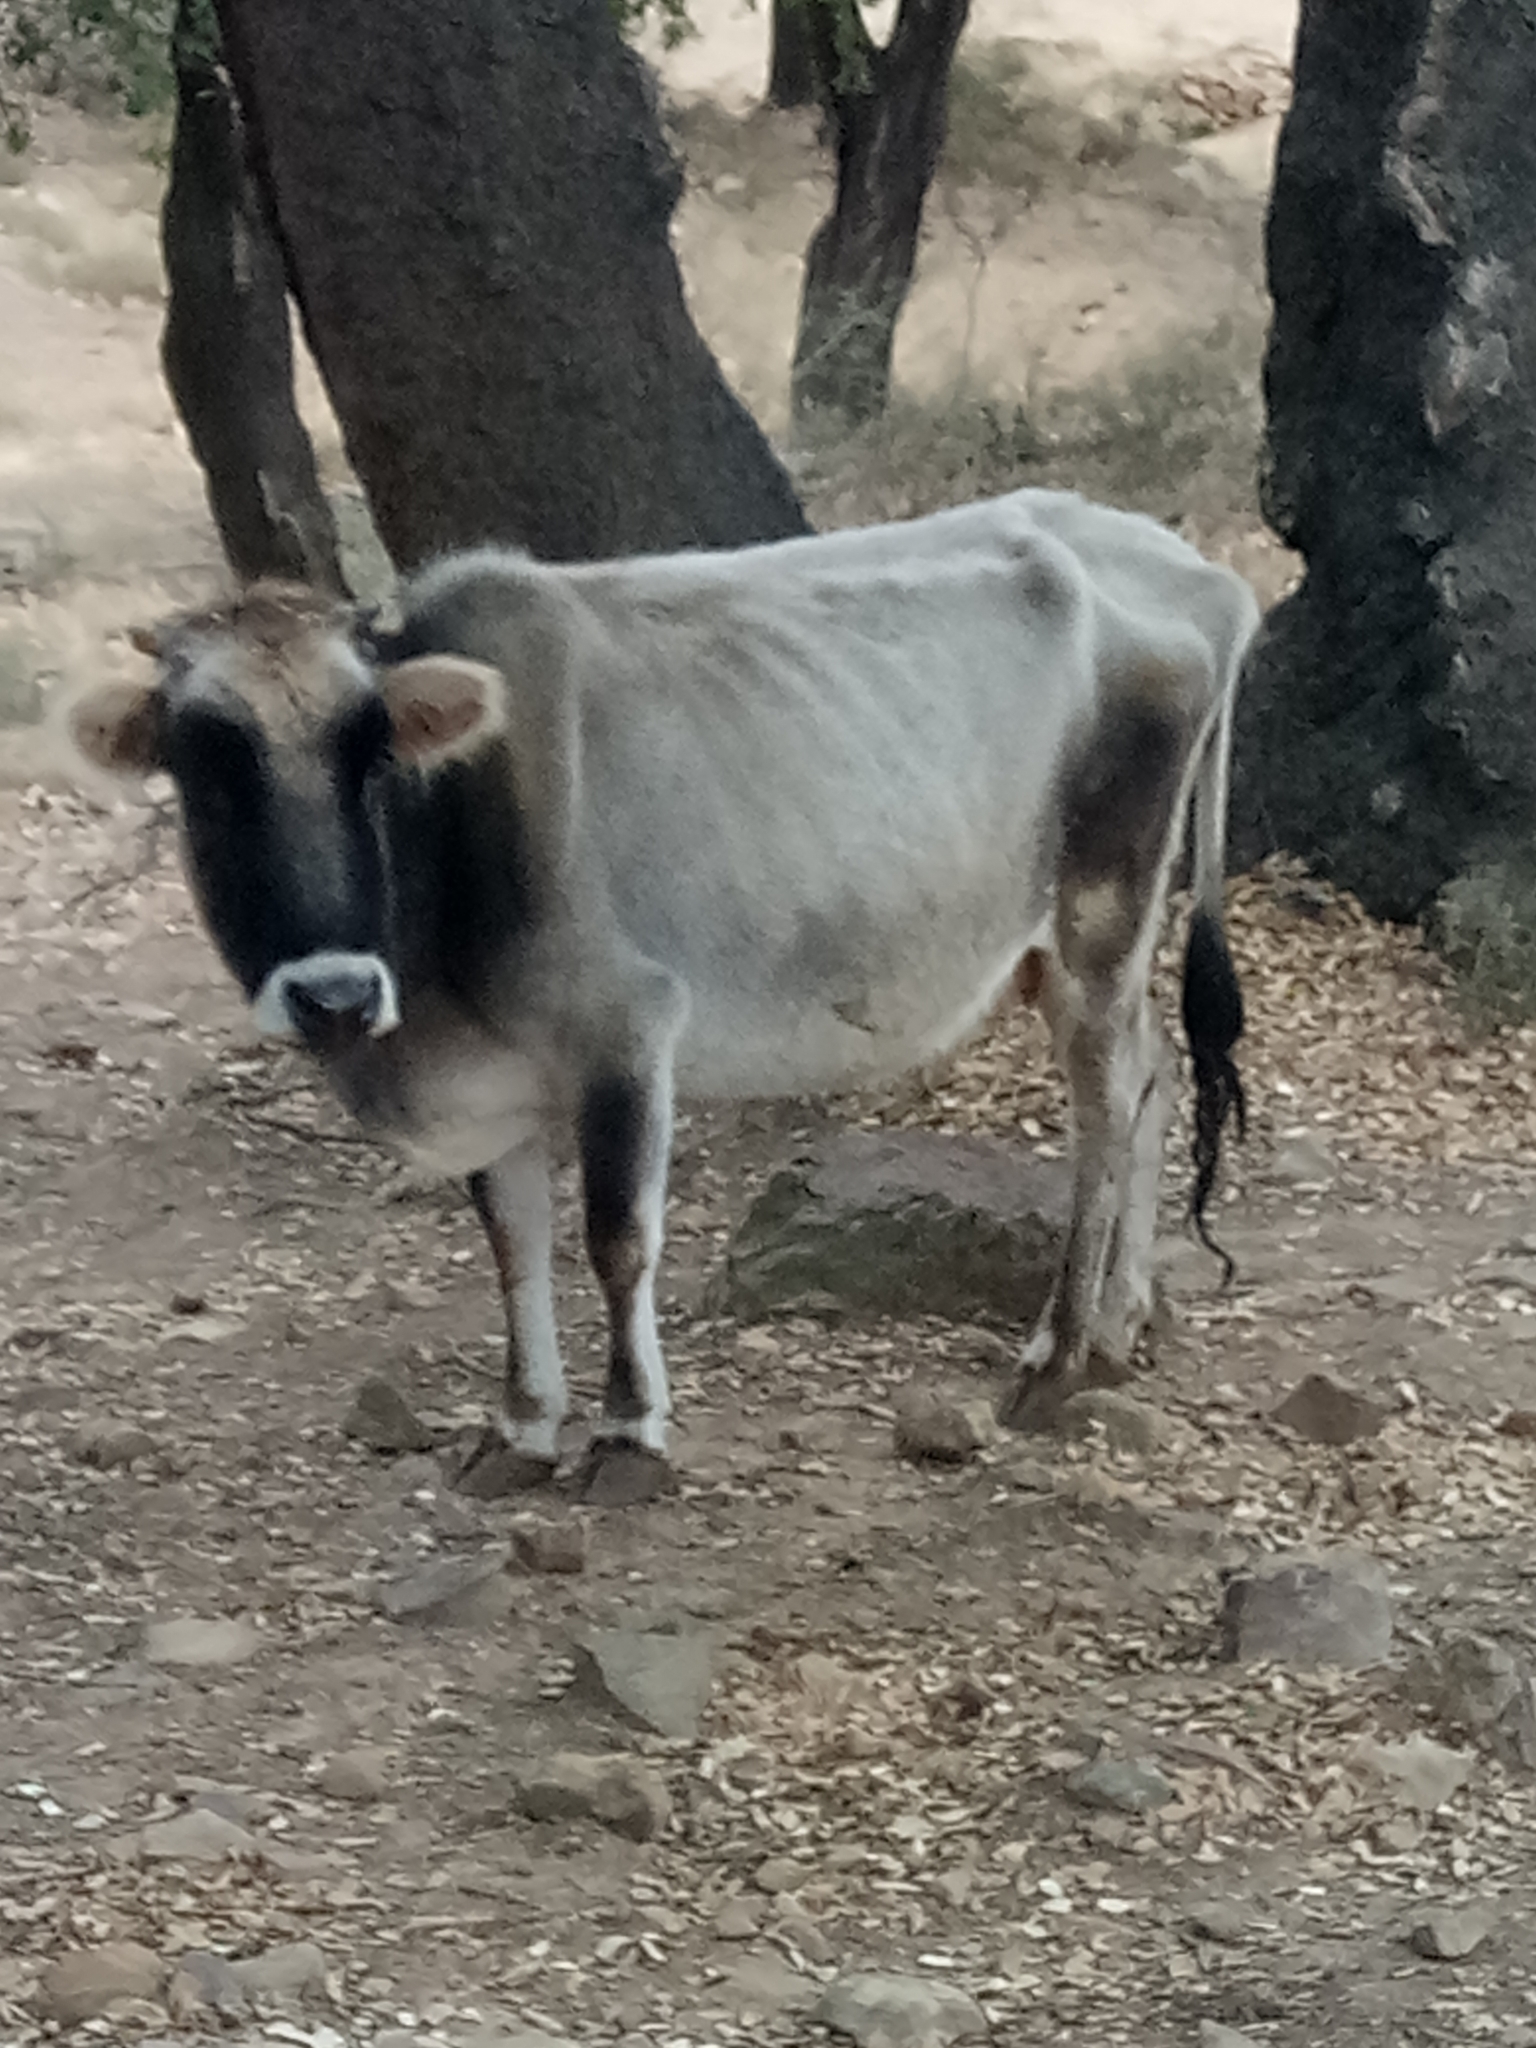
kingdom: Animalia
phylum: Chordata
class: Mammalia
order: Artiodactyla
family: Bovidae
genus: Bos
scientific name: Bos taurus
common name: Domesticated cattle
